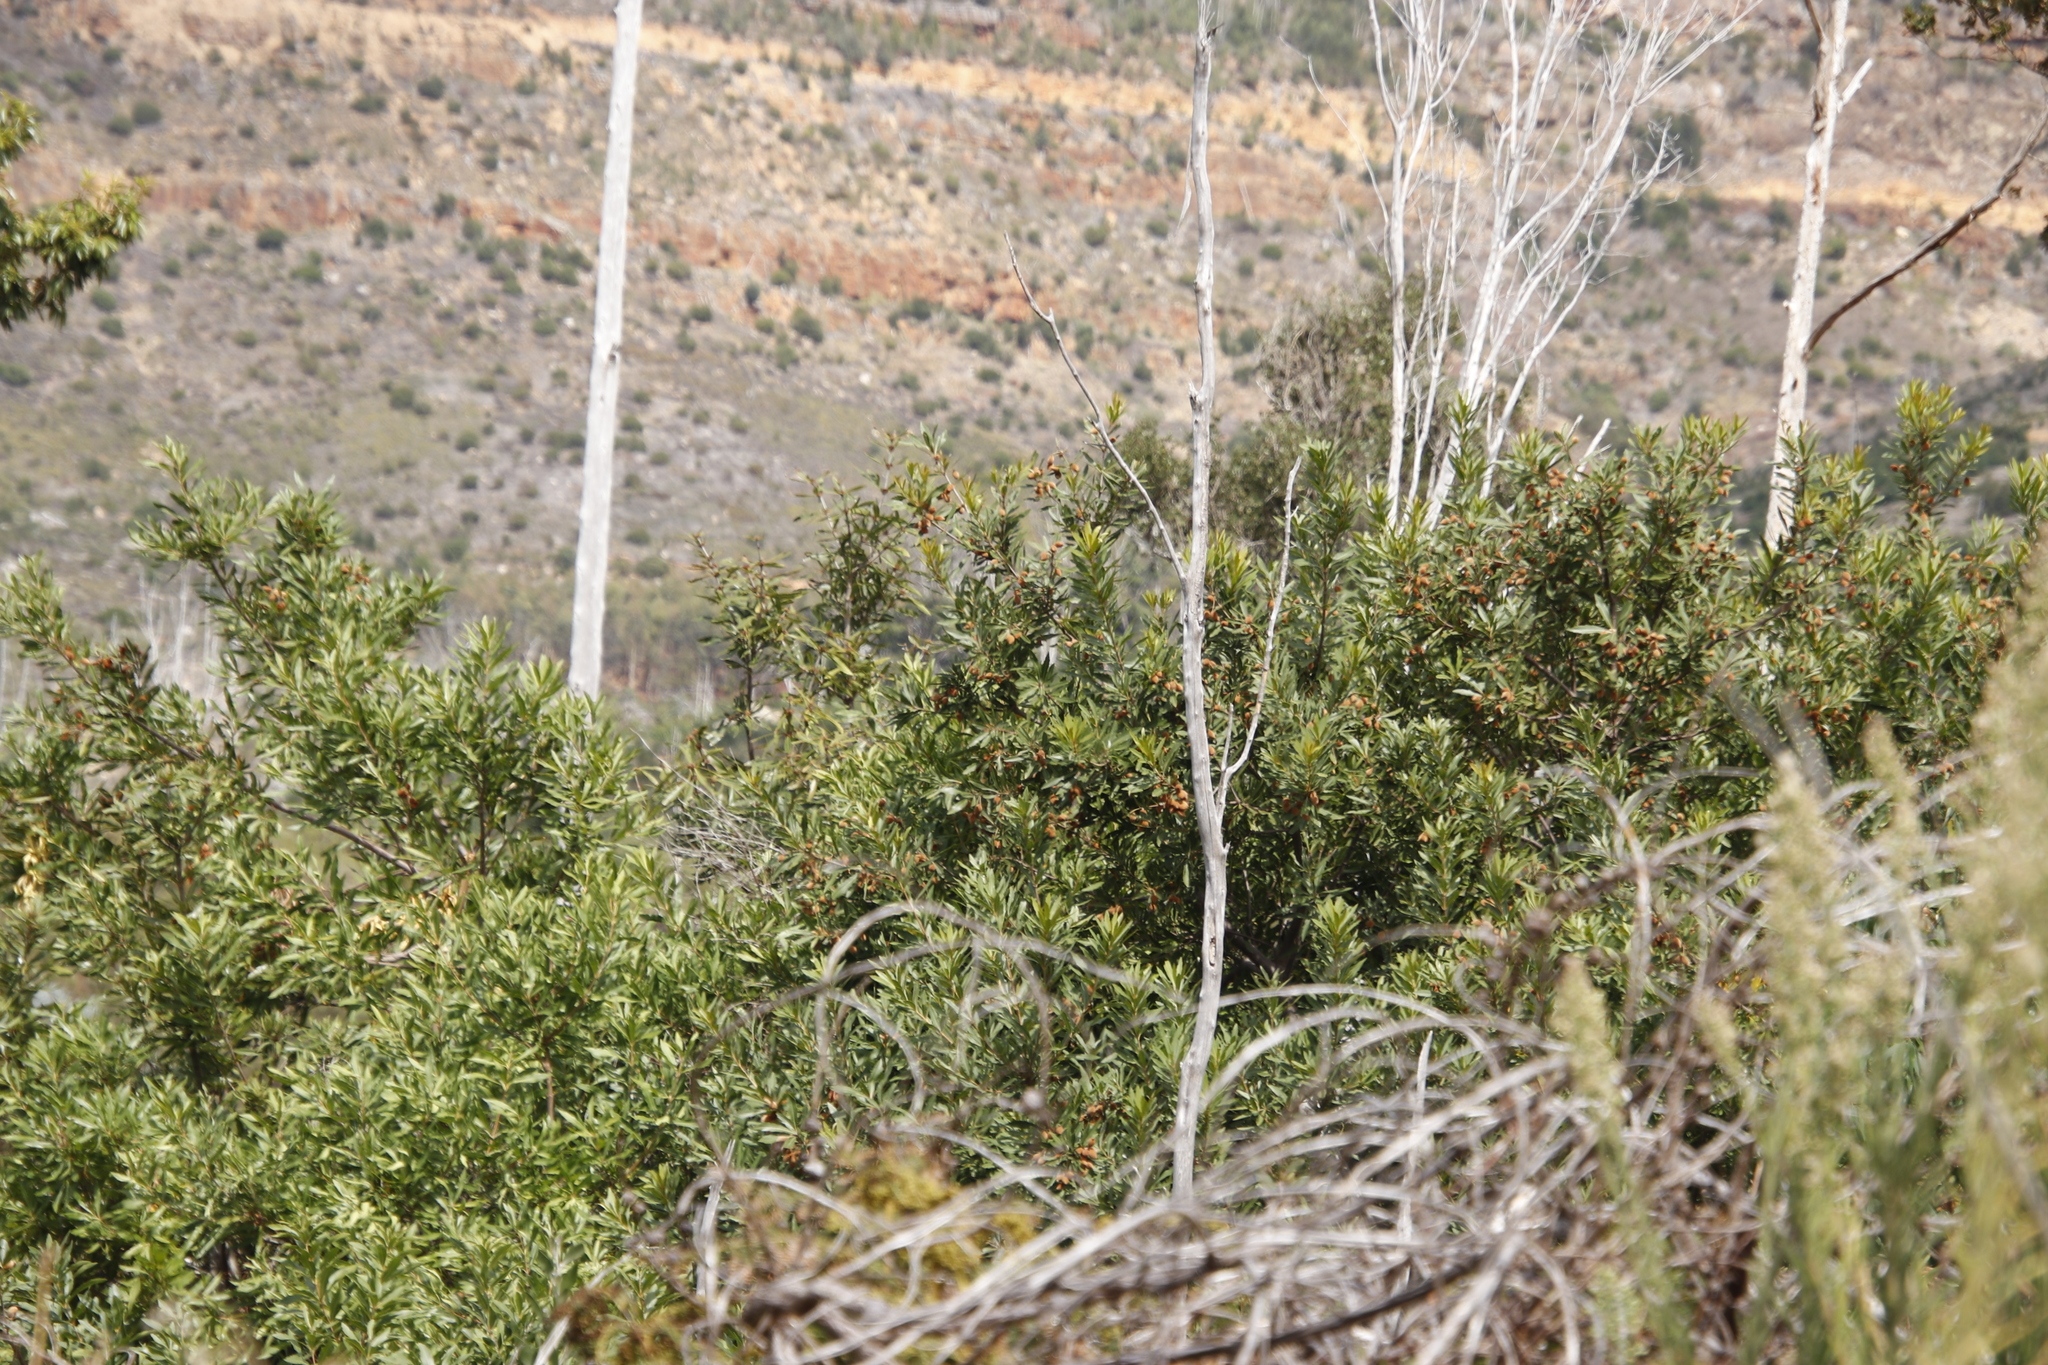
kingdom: Plantae
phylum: Tracheophyta
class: Magnoliopsida
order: Proteales
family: Proteaceae
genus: Brabejum
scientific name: Brabejum stellatifolium
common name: Wild almond
